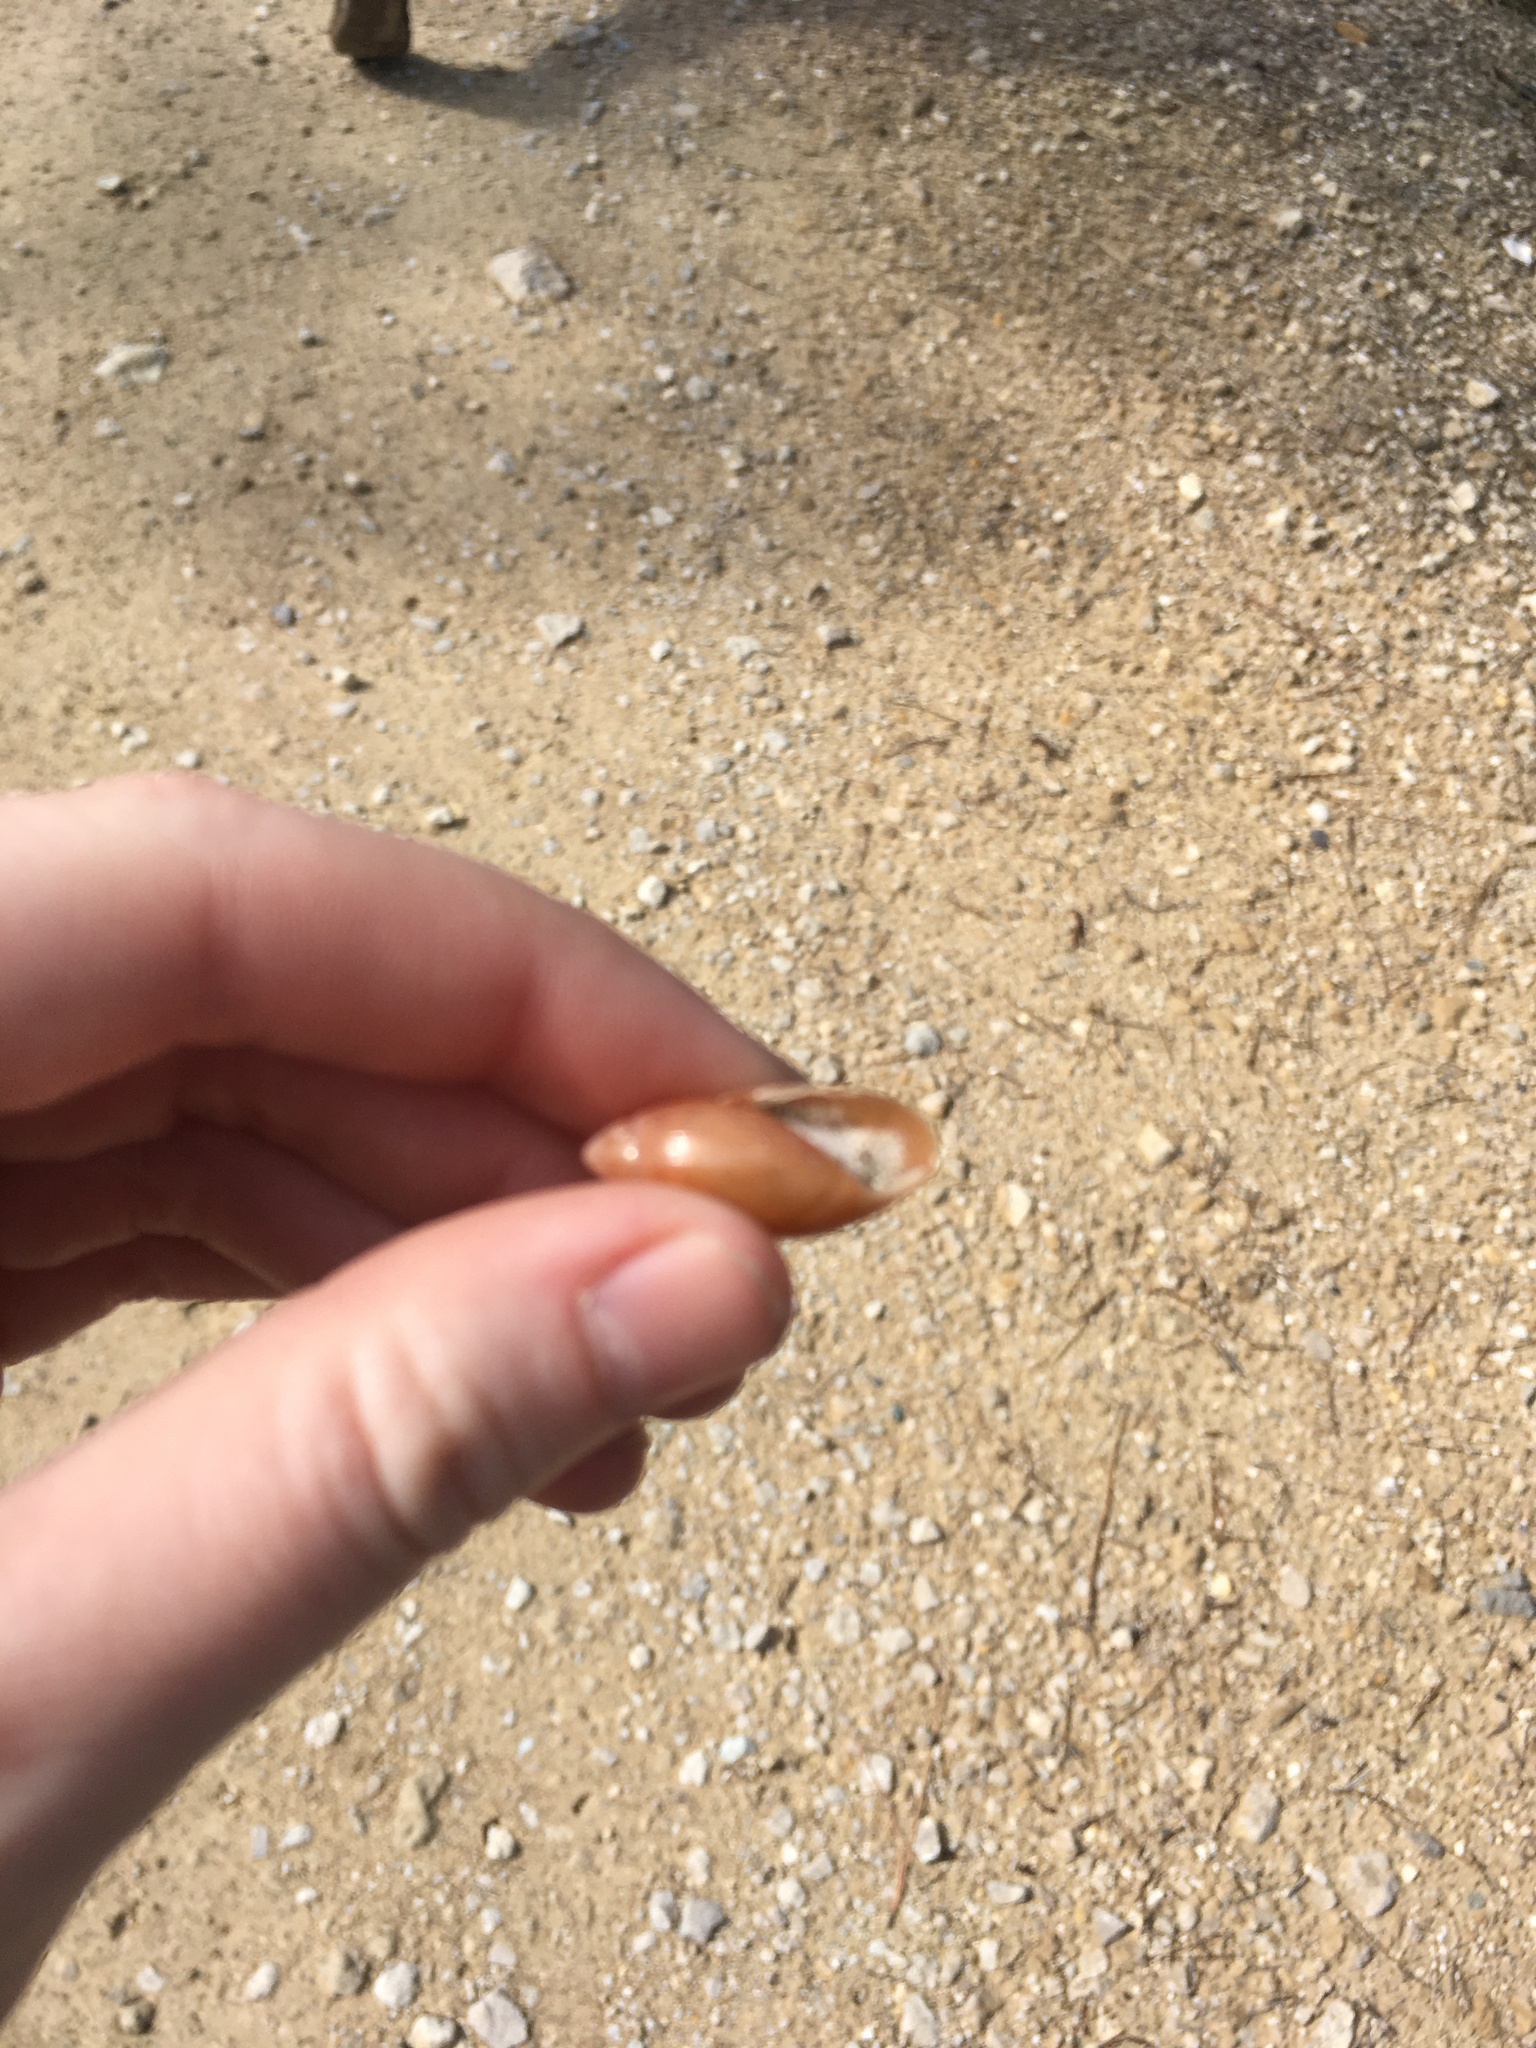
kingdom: Animalia
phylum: Mollusca
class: Gastropoda
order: Stylommatophora
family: Spiraxidae
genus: Euglandina
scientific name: Euglandina rosea
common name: Rosy wolfsnail
